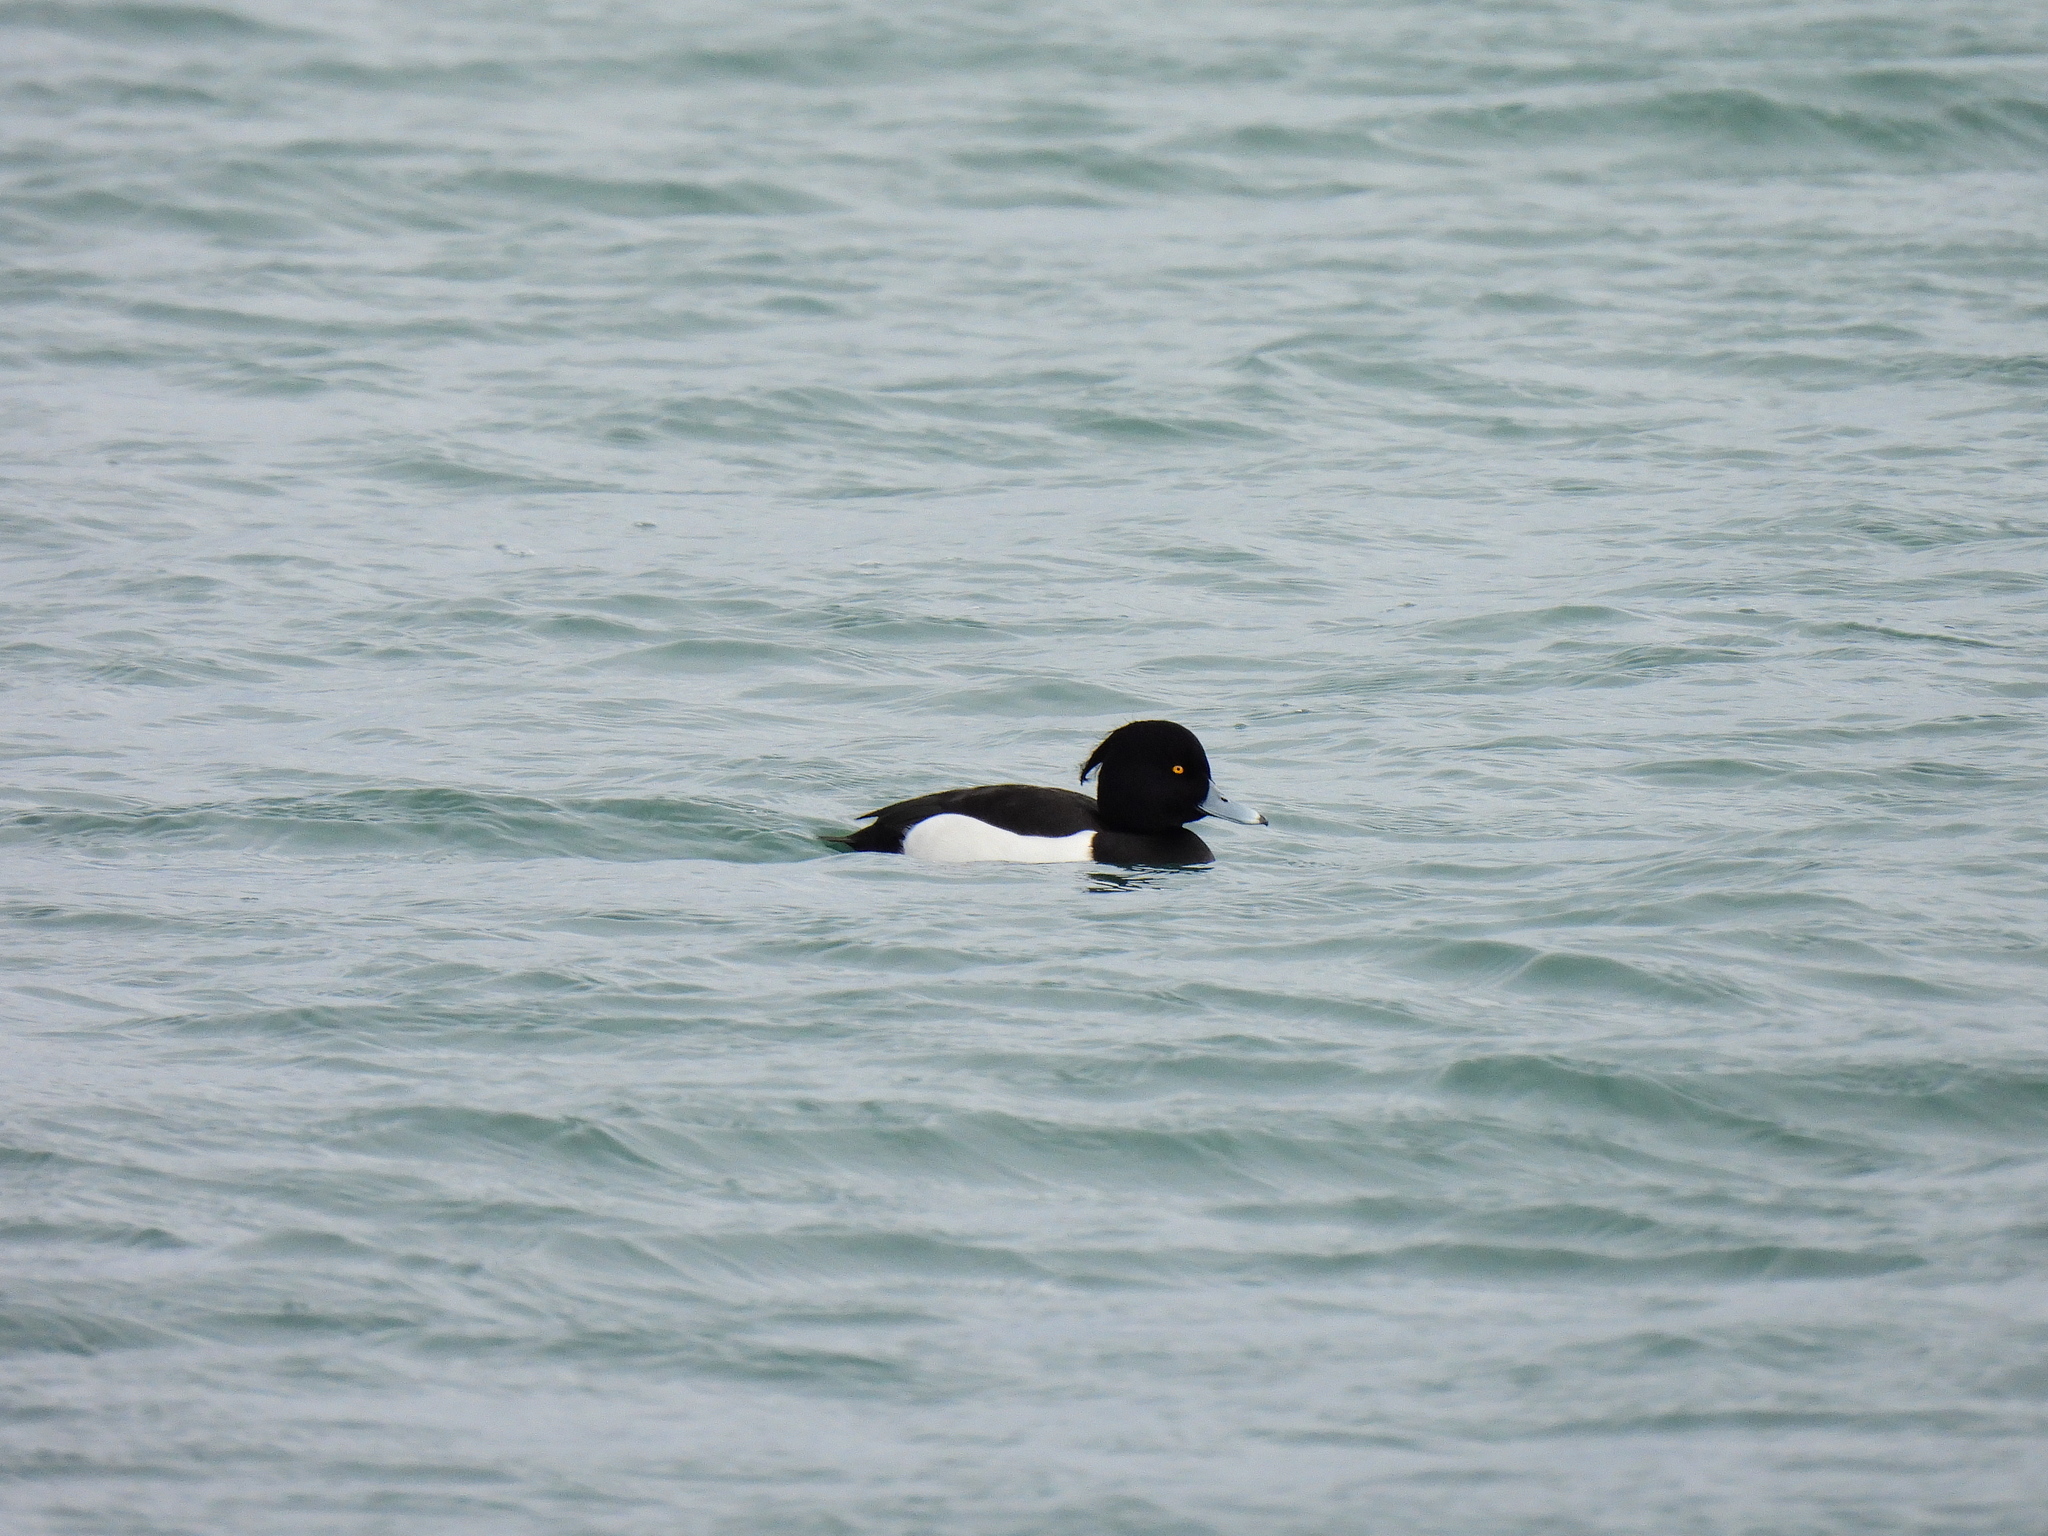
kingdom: Animalia
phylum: Chordata
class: Aves
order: Anseriformes
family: Anatidae
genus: Aythya
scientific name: Aythya fuligula
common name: Tufted duck
